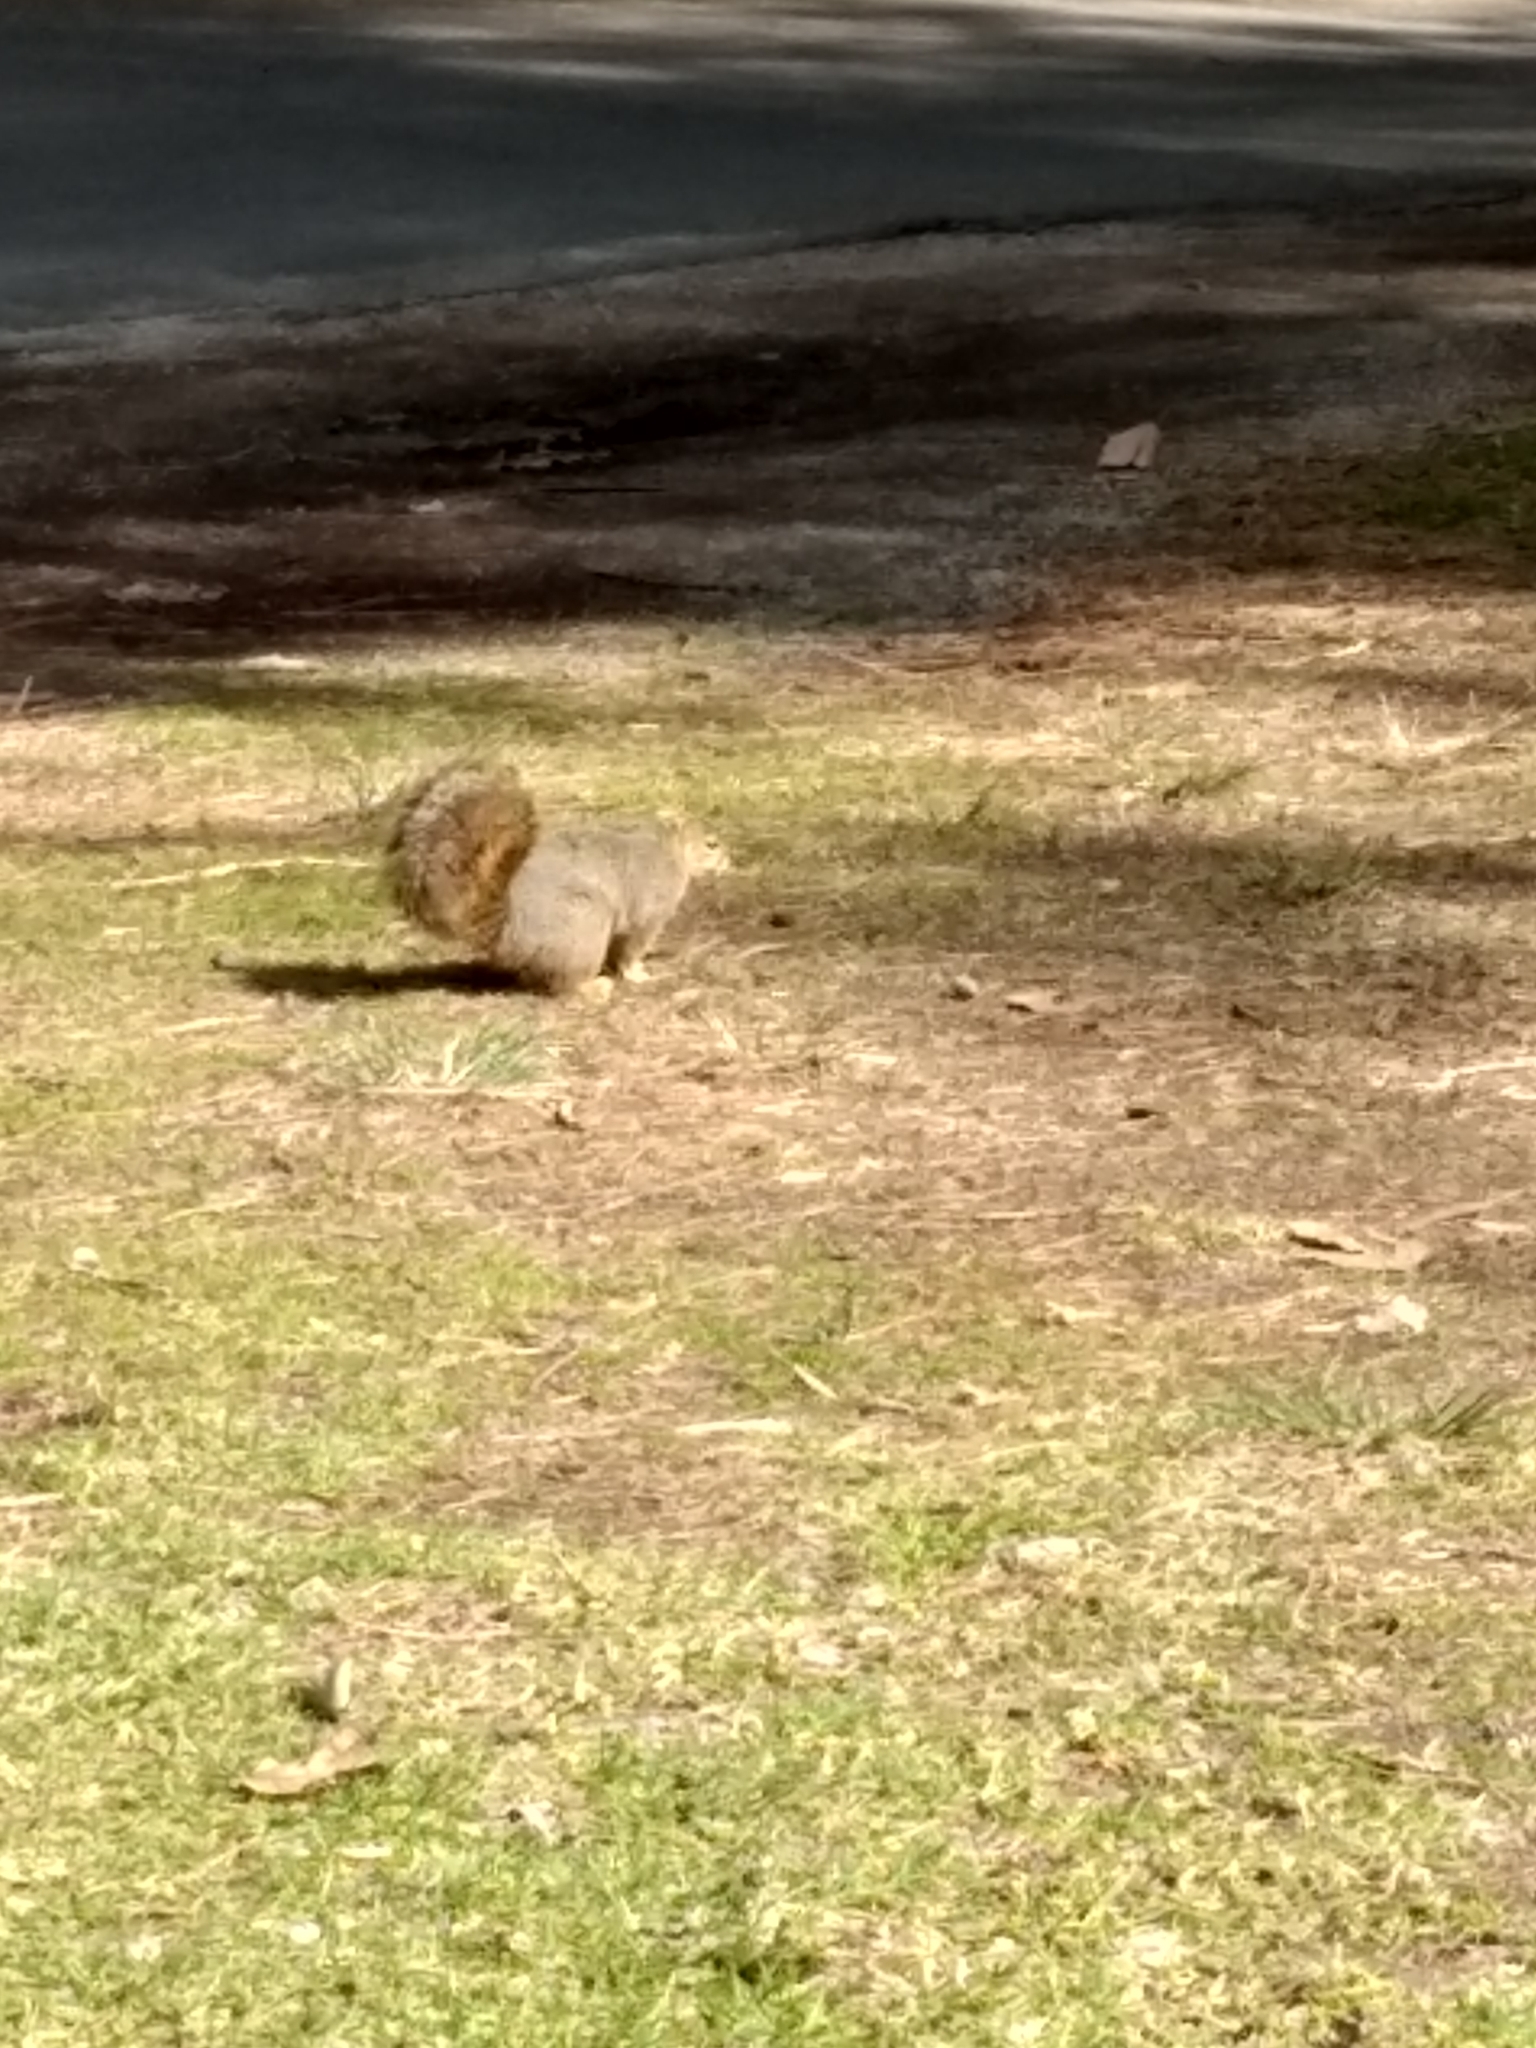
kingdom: Animalia
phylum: Chordata
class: Mammalia
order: Rodentia
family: Sciuridae
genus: Sciurus
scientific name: Sciurus niger
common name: Fox squirrel
